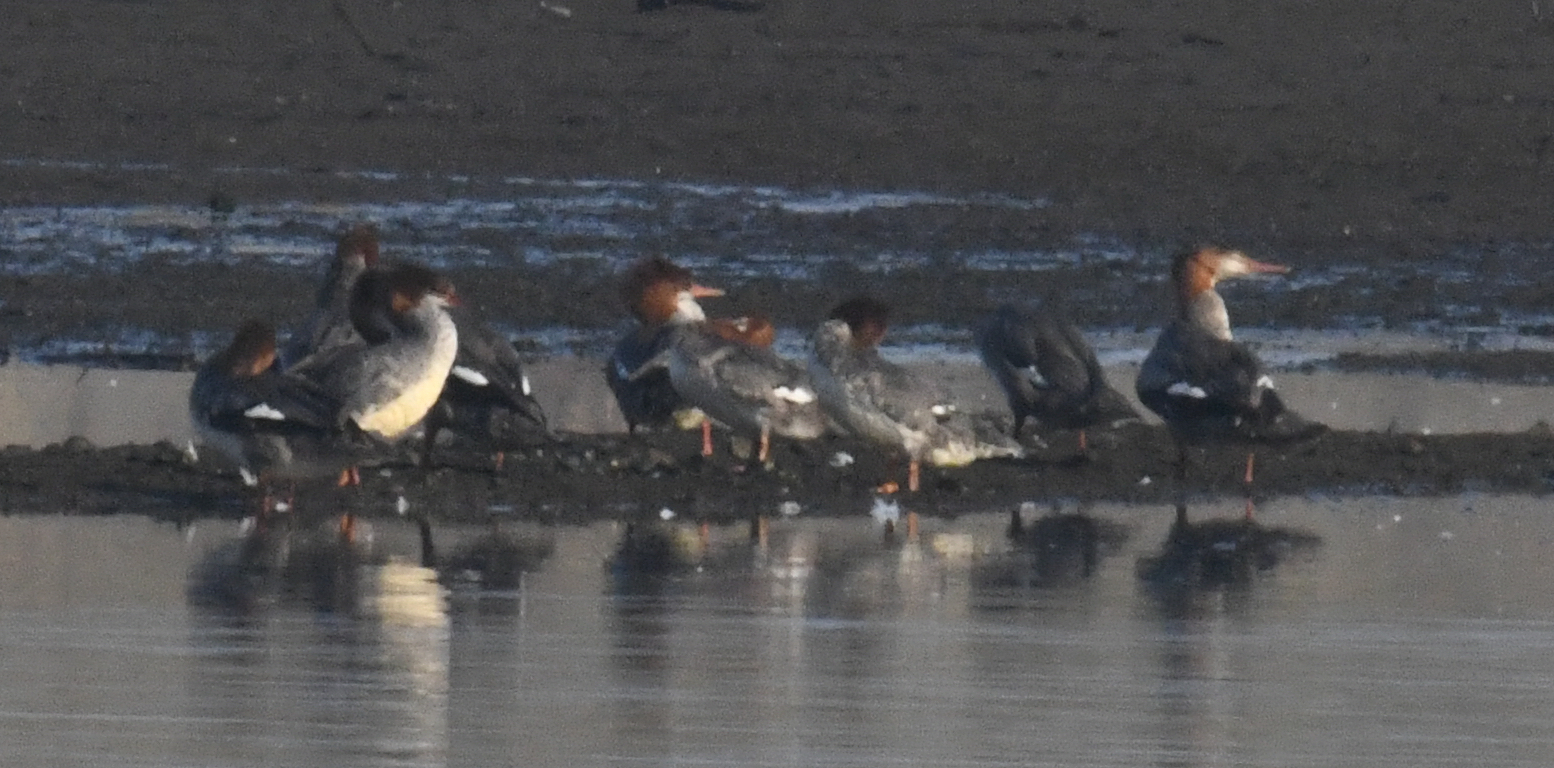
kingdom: Animalia
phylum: Chordata
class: Aves
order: Anseriformes
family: Anatidae
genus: Mergus
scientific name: Mergus merganser
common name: Common merganser
